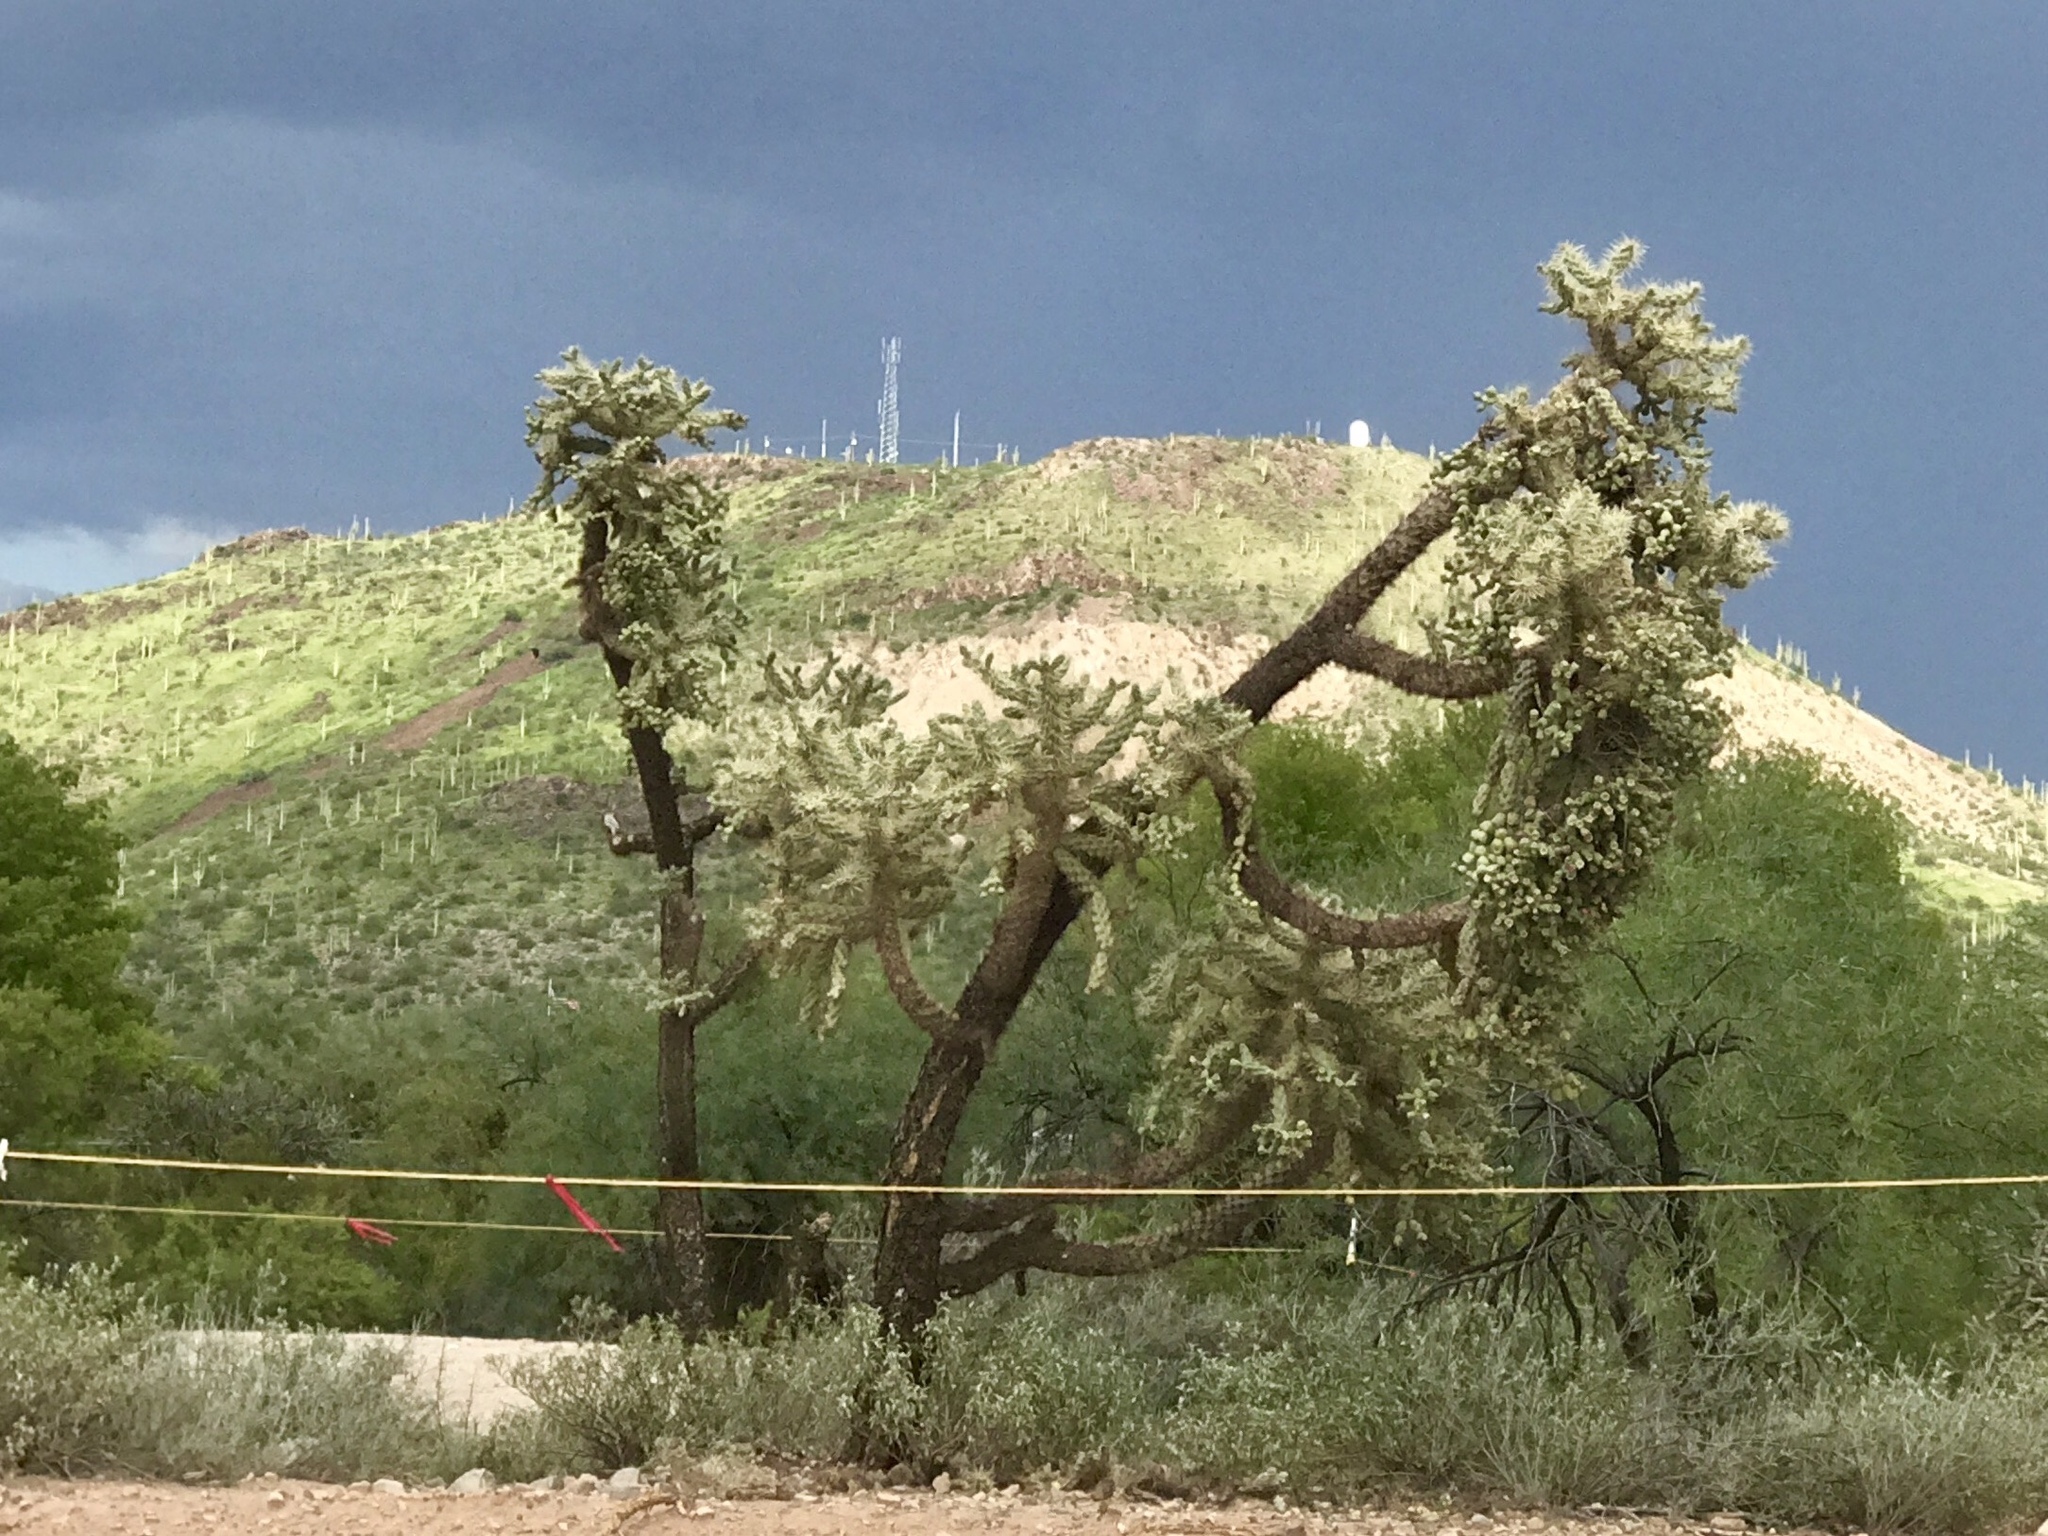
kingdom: Plantae
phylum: Tracheophyta
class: Magnoliopsida
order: Caryophyllales
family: Cactaceae
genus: Cylindropuntia
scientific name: Cylindropuntia fulgida
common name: Jumping cholla
